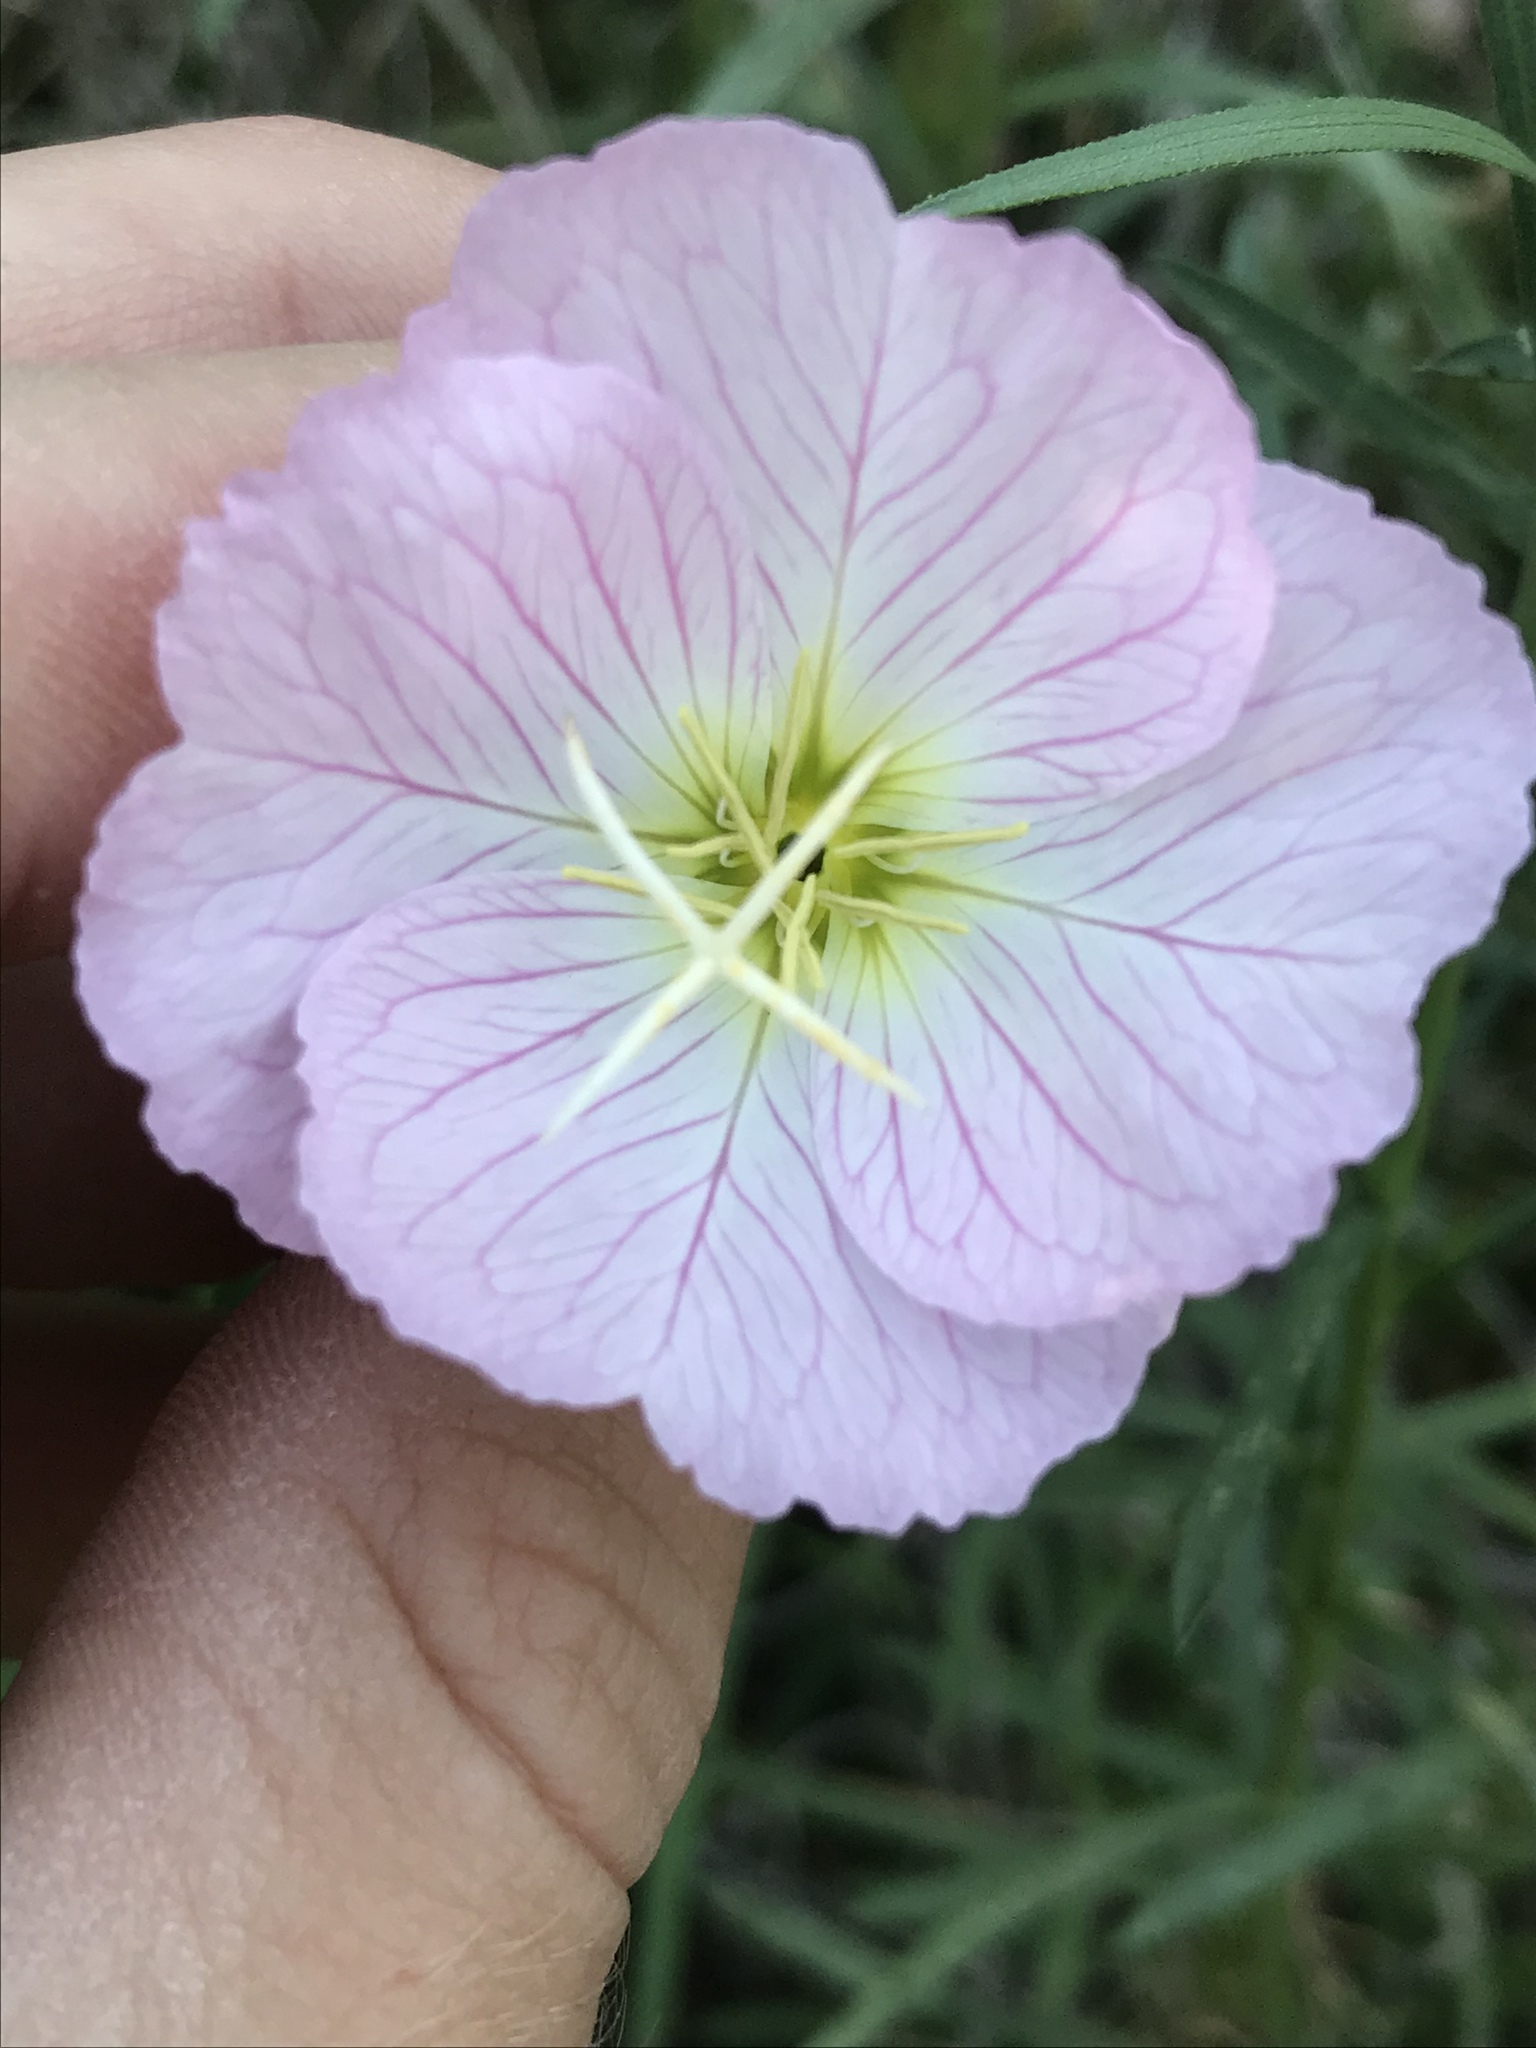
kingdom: Plantae
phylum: Tracheophyta
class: Magnoliopsida
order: Myrtales
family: Onagraceae
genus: Oenothera
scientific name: Oenothera speciosa
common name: White evening-primrose
